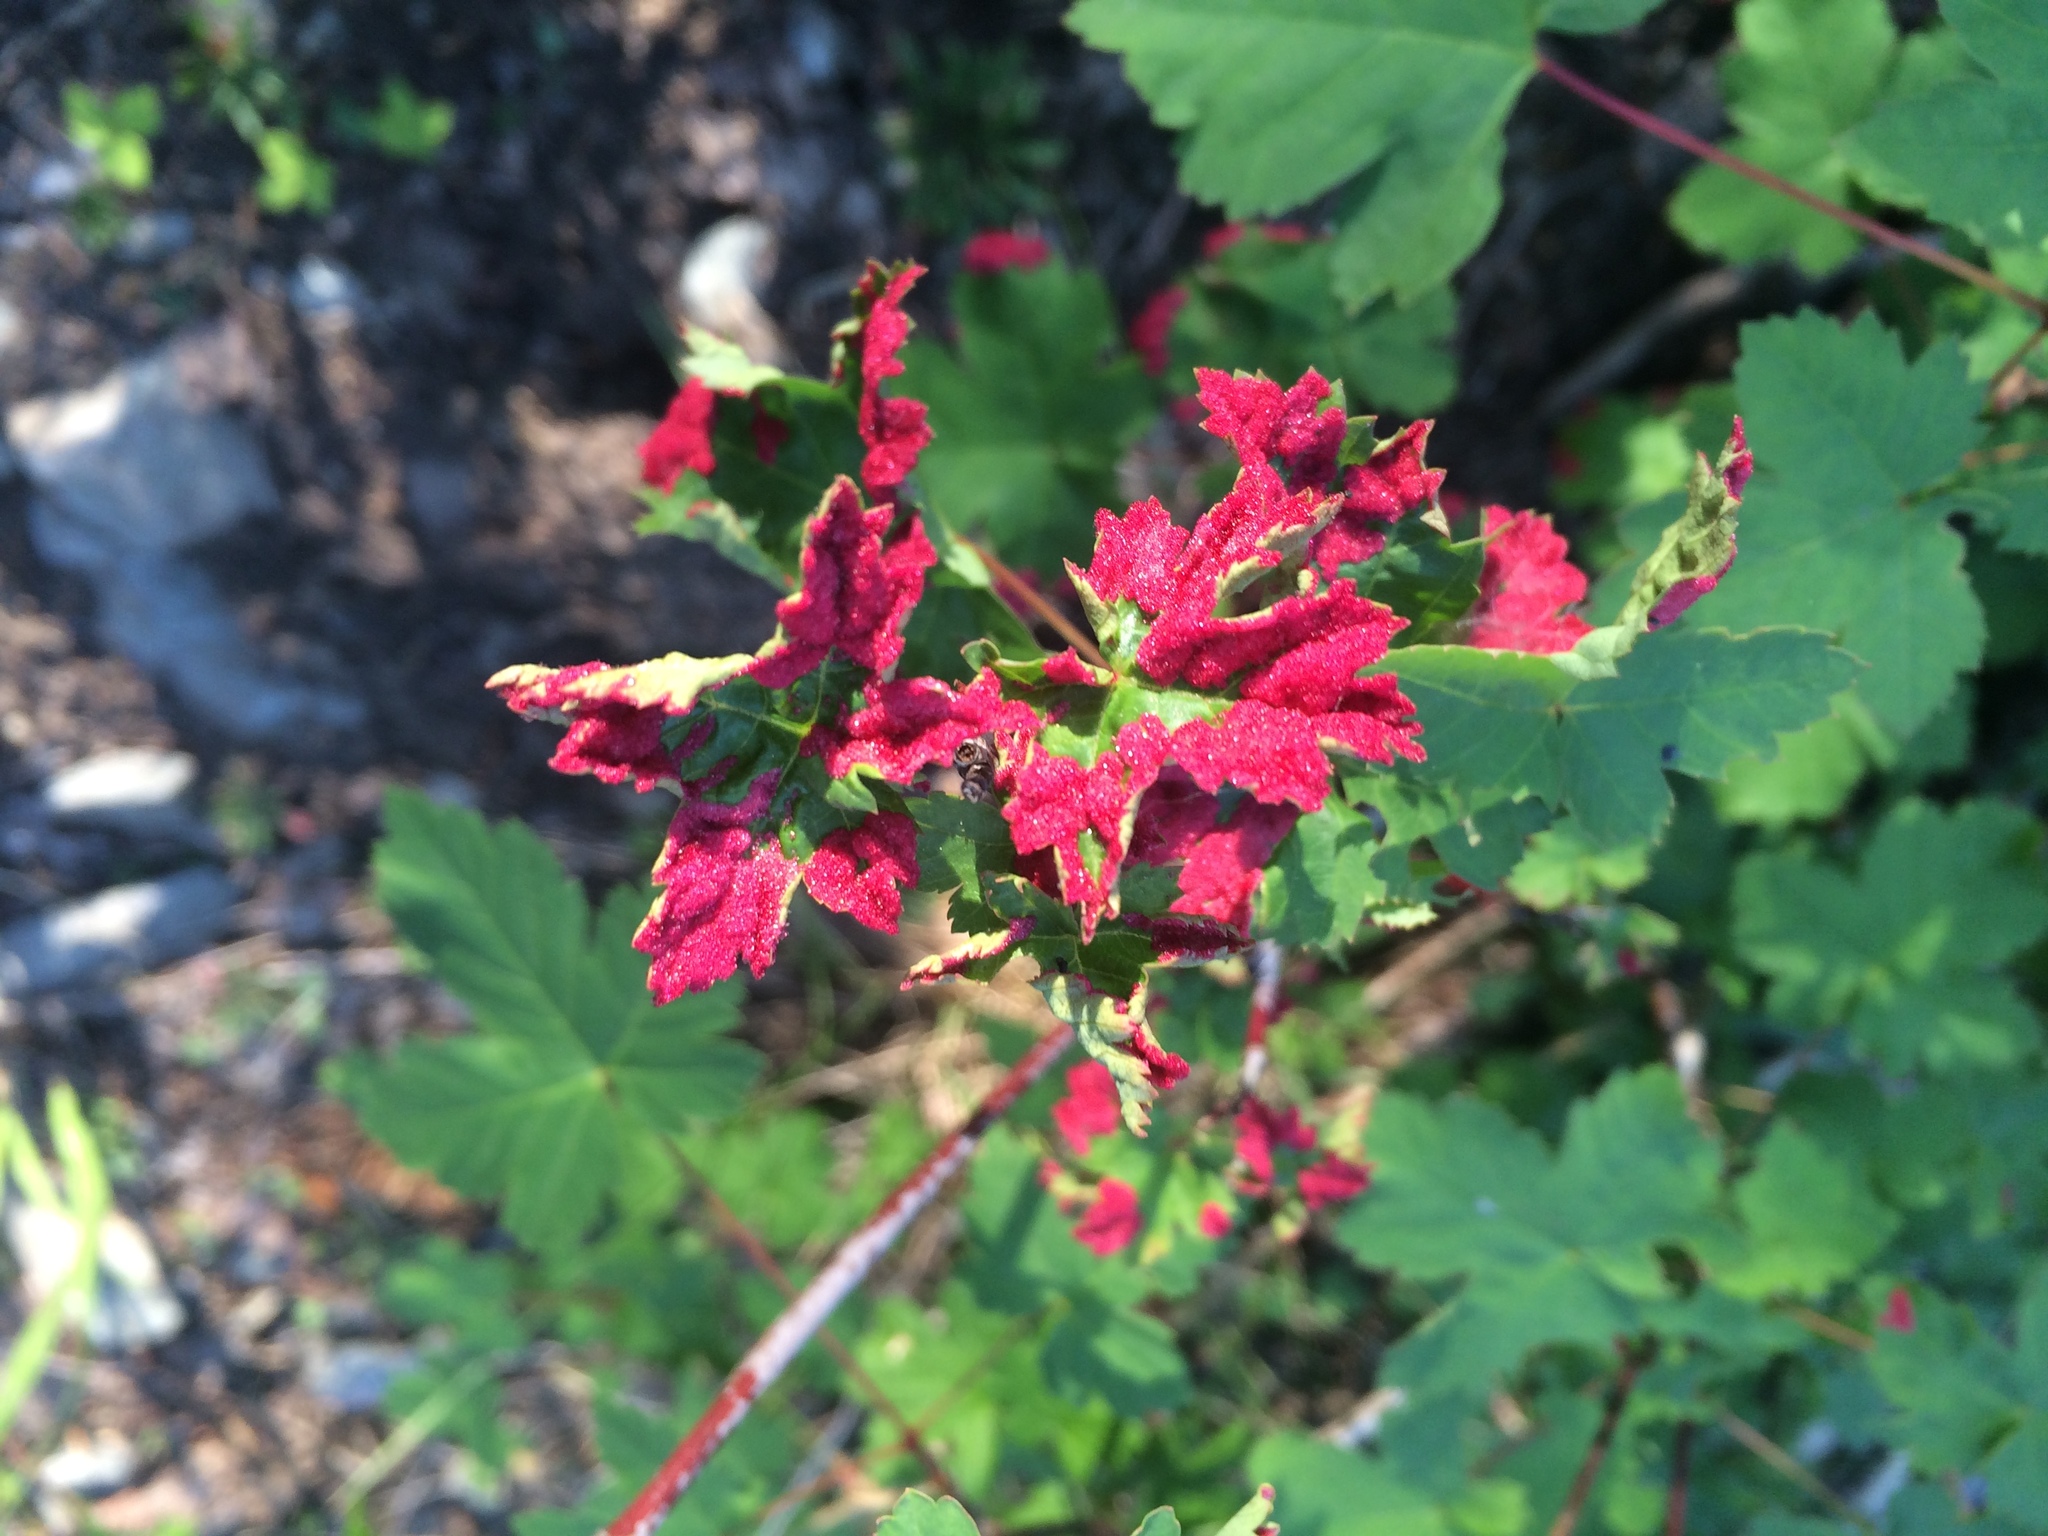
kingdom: Plantae
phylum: Tracheophyta
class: Magnoliopsida
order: Sapindales
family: Sapindaceae
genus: Acer
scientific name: Acer glabrum
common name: Rocky mountain maple
